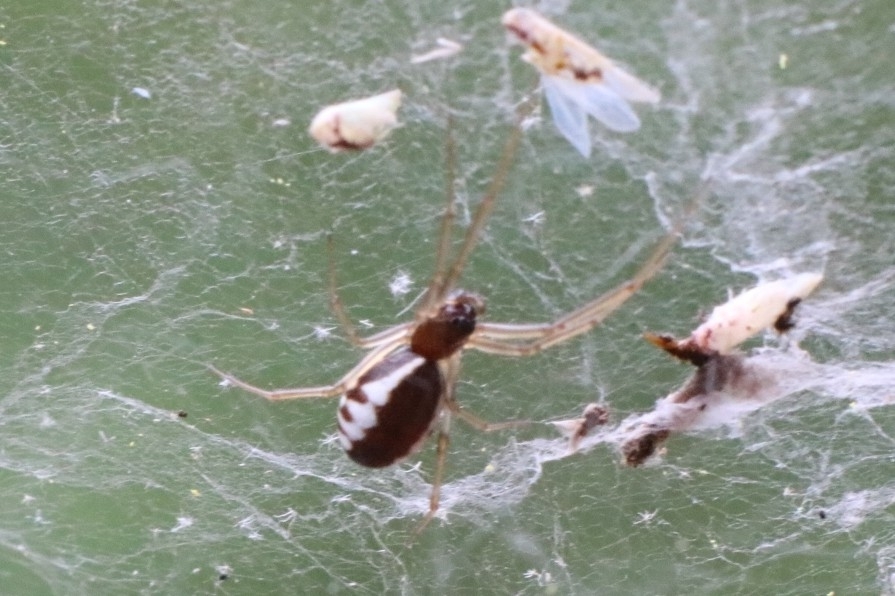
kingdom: Animalia
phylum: Arthropoda
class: Arachnida
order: Araneae
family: Linyphiidae
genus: Frontinella
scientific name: Frontinella pyramitela
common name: Bowl-and-doily spider
